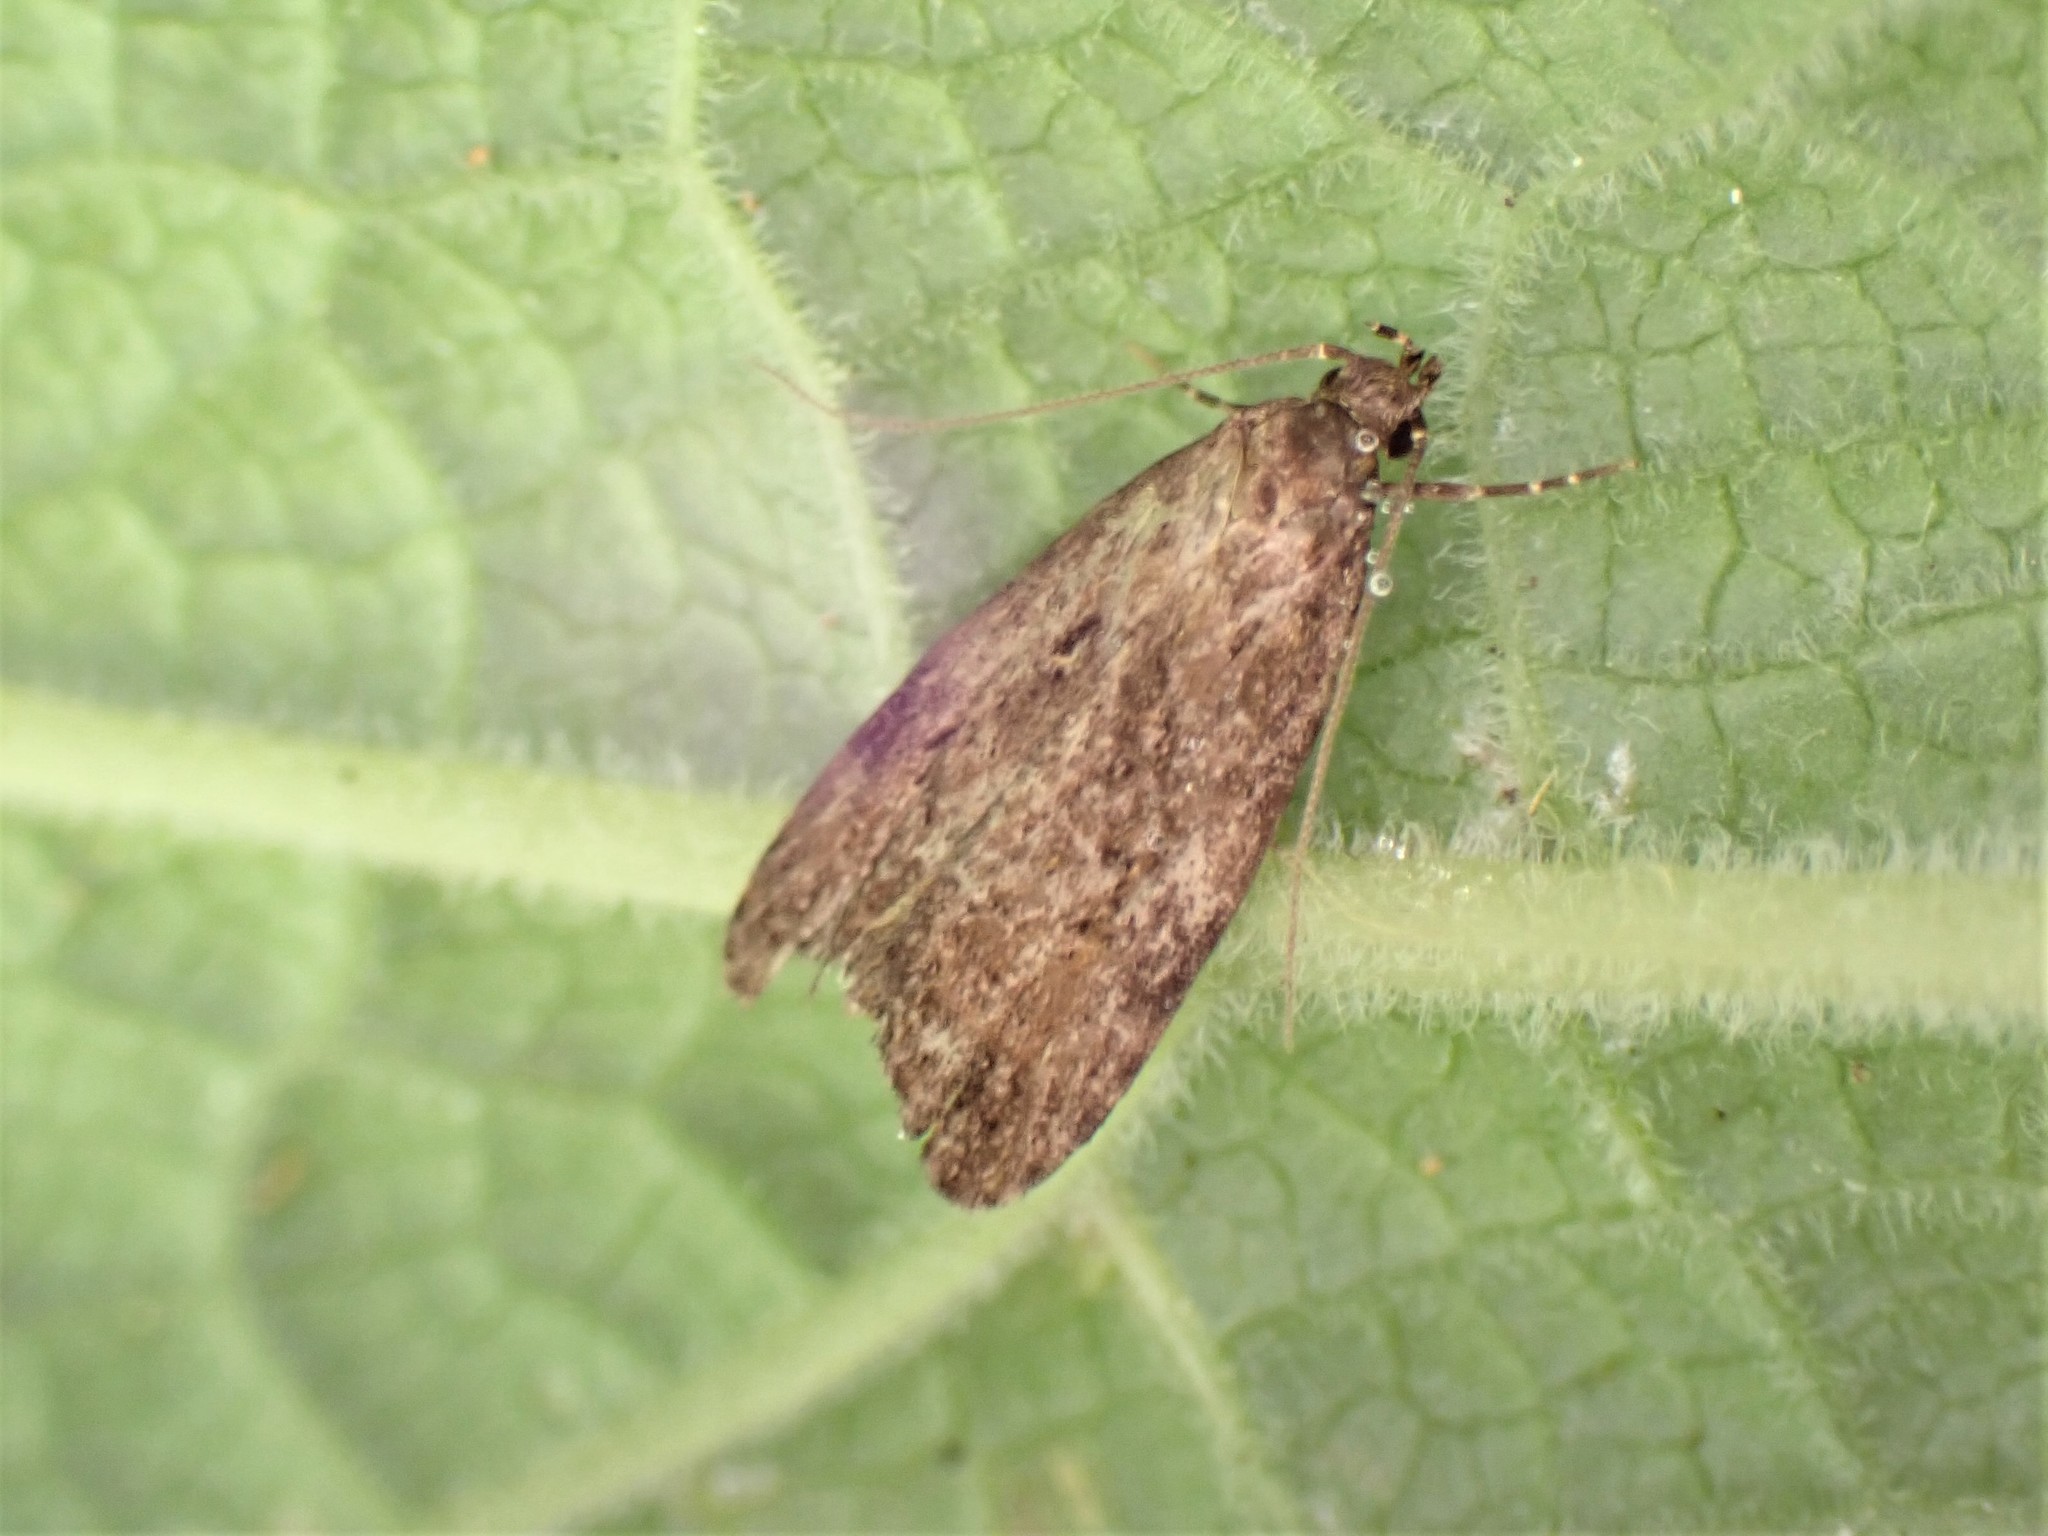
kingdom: Animalia
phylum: Arthropoda
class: Insecta
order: Lepidoptera
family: Oecophoridae
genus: Izatha
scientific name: Izatha austera
